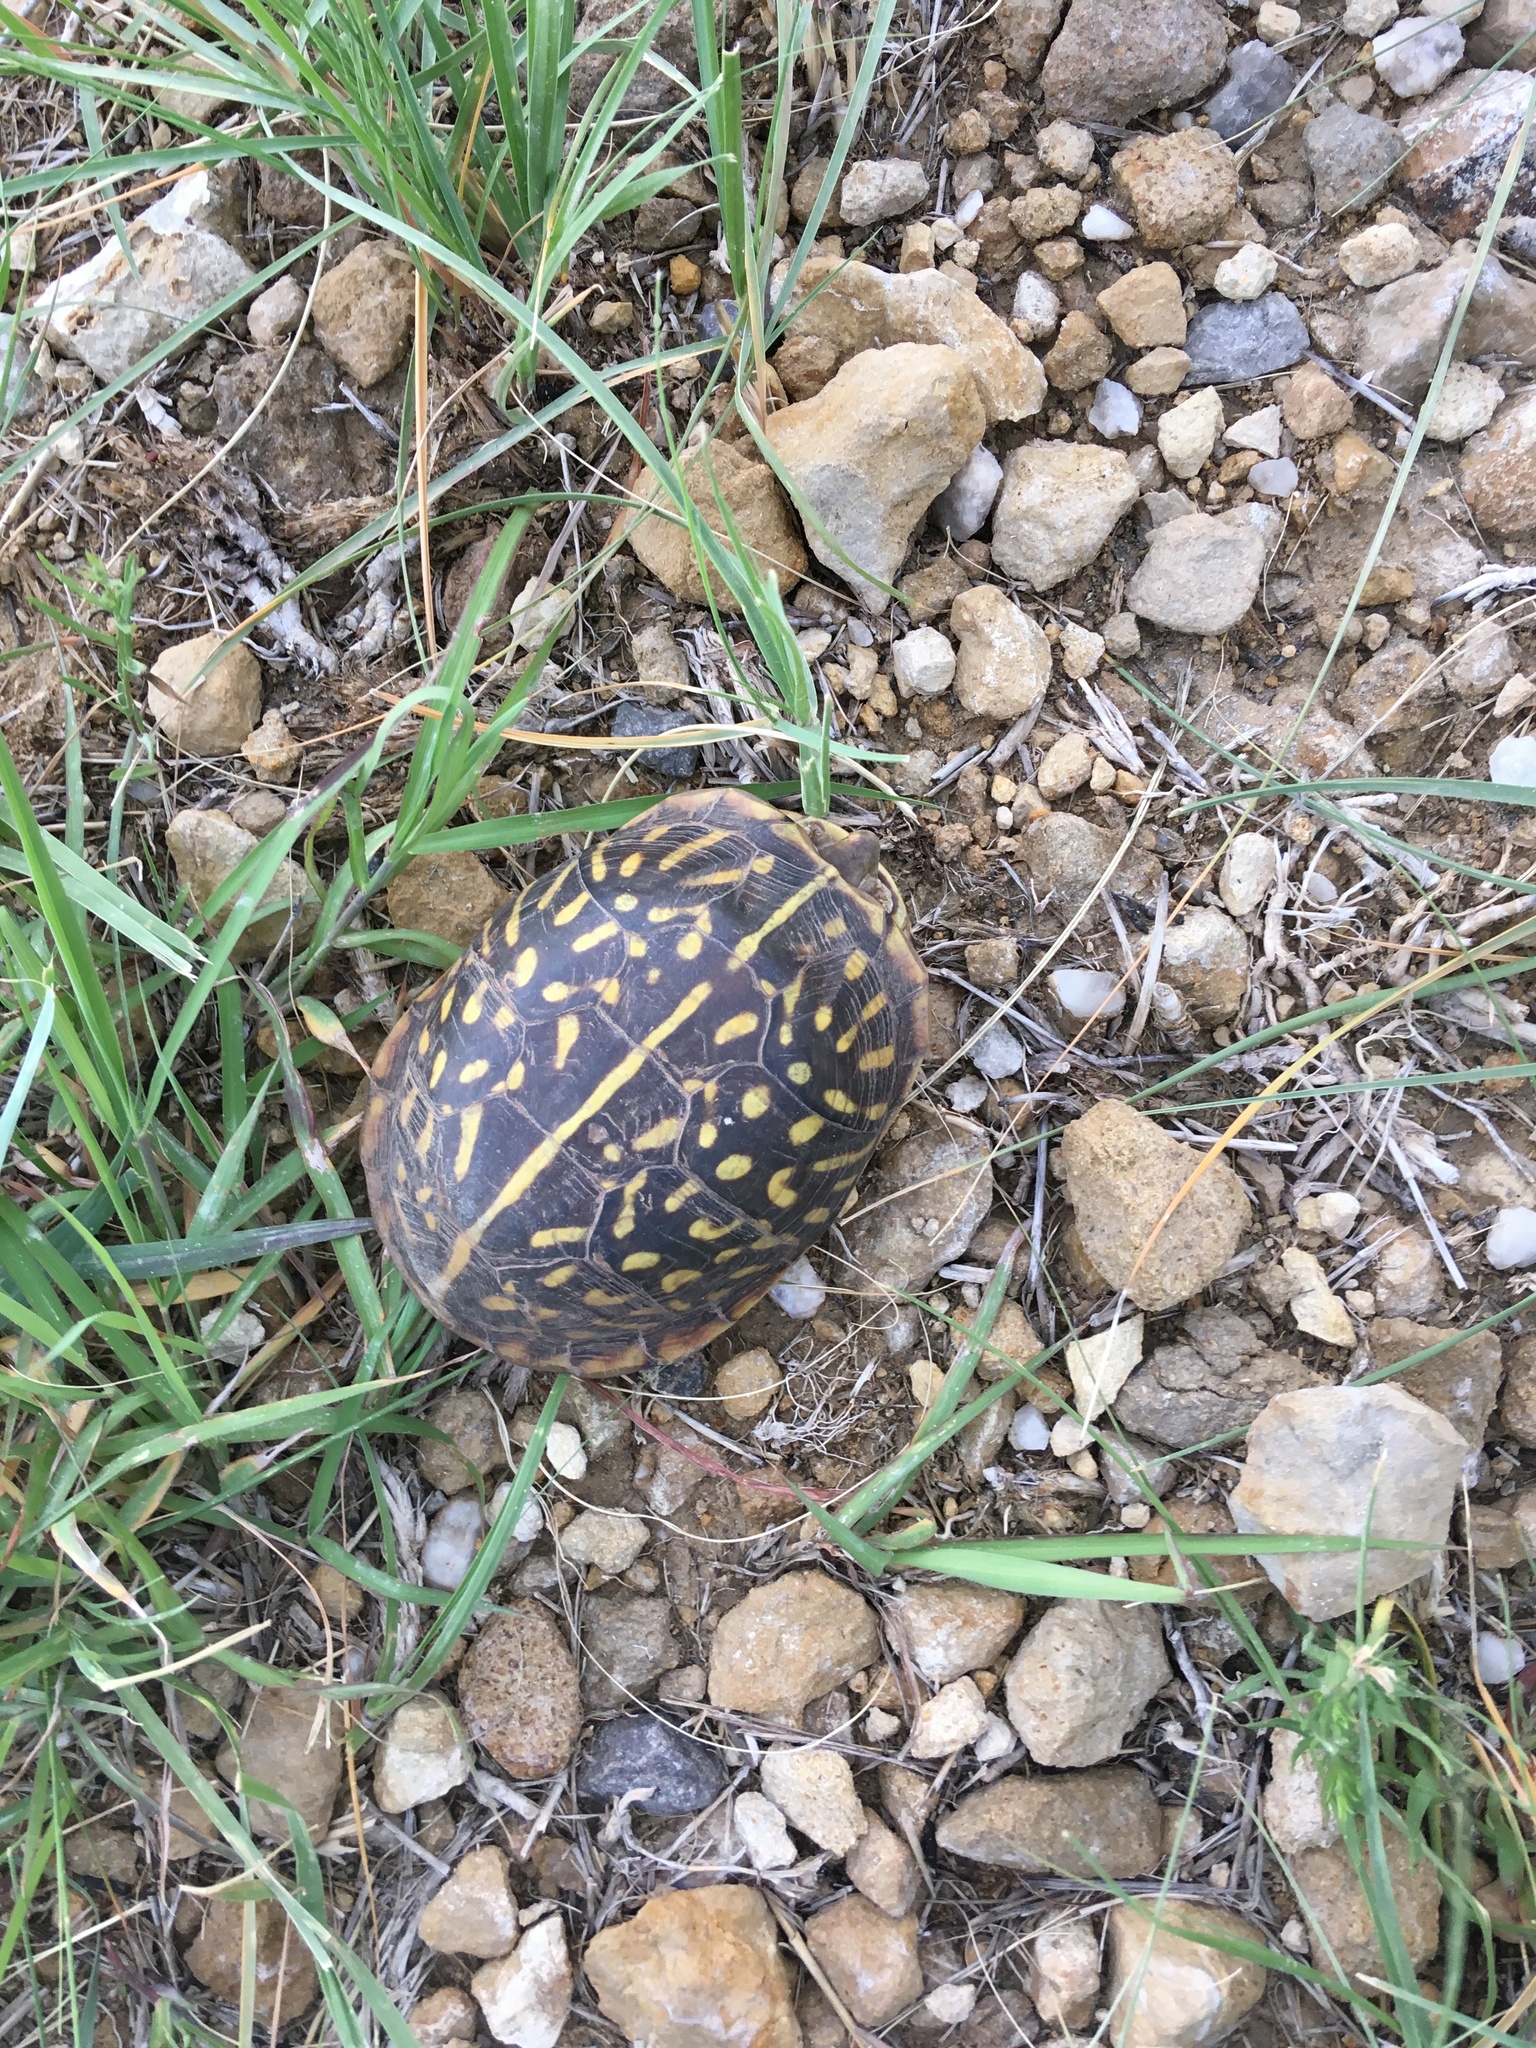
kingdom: Animalia
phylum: Chordata
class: Testudines
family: Emydidae
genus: Terrapene
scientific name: Terrapene ornata
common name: Western box turtle
